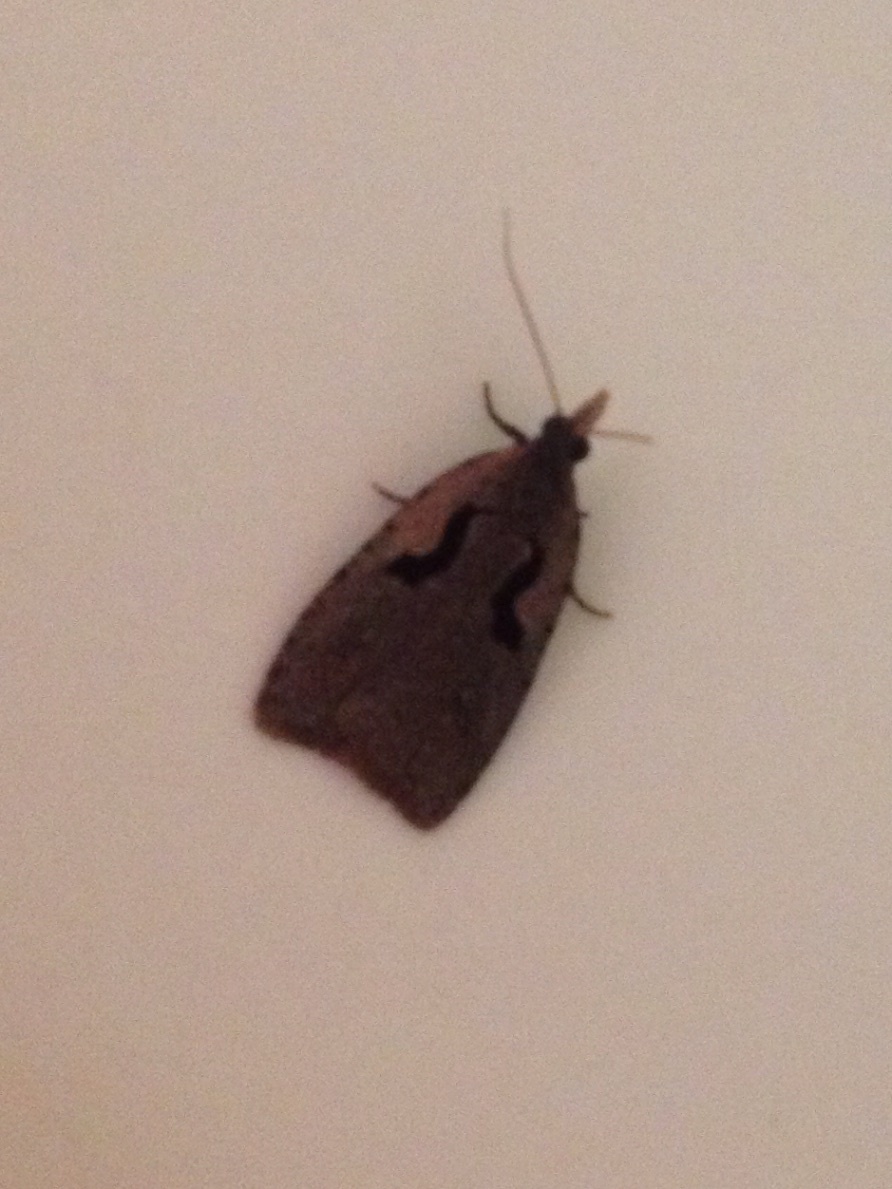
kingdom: Animalia
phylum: Arthropoda
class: Insecta
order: Lepidoptera
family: Tortricidae
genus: Cnephasia
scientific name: Cnephasia jactatana
